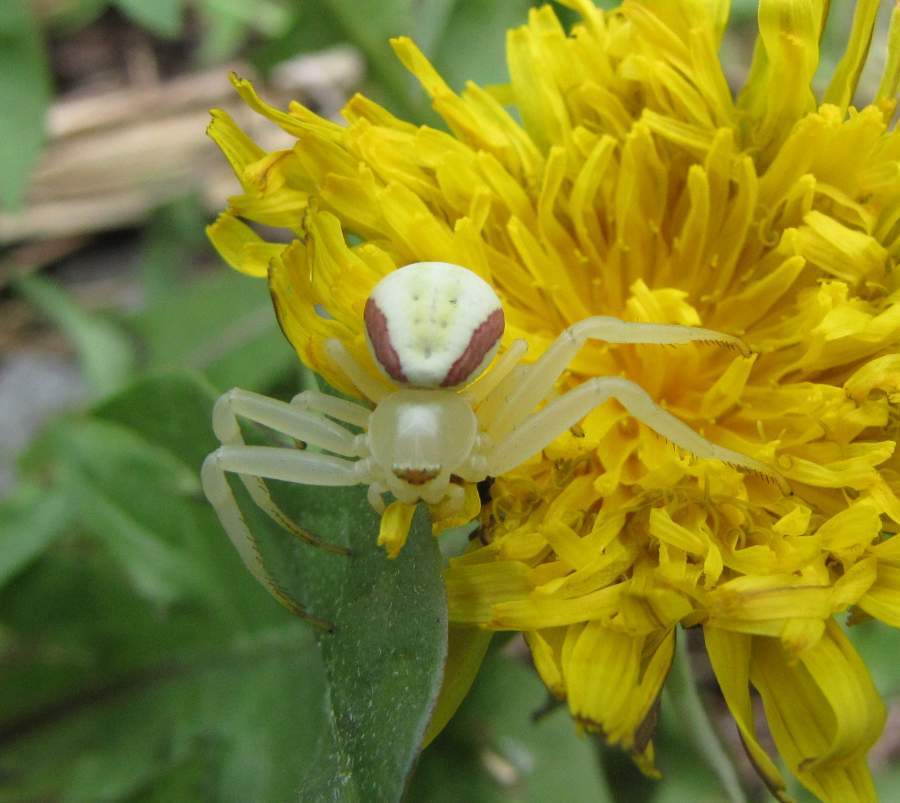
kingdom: Animalia
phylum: Arthropoda
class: Arachnida
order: Araneae
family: Thomisidae
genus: Misumena
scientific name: Misumena vatia
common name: Goldenrod crab spider
